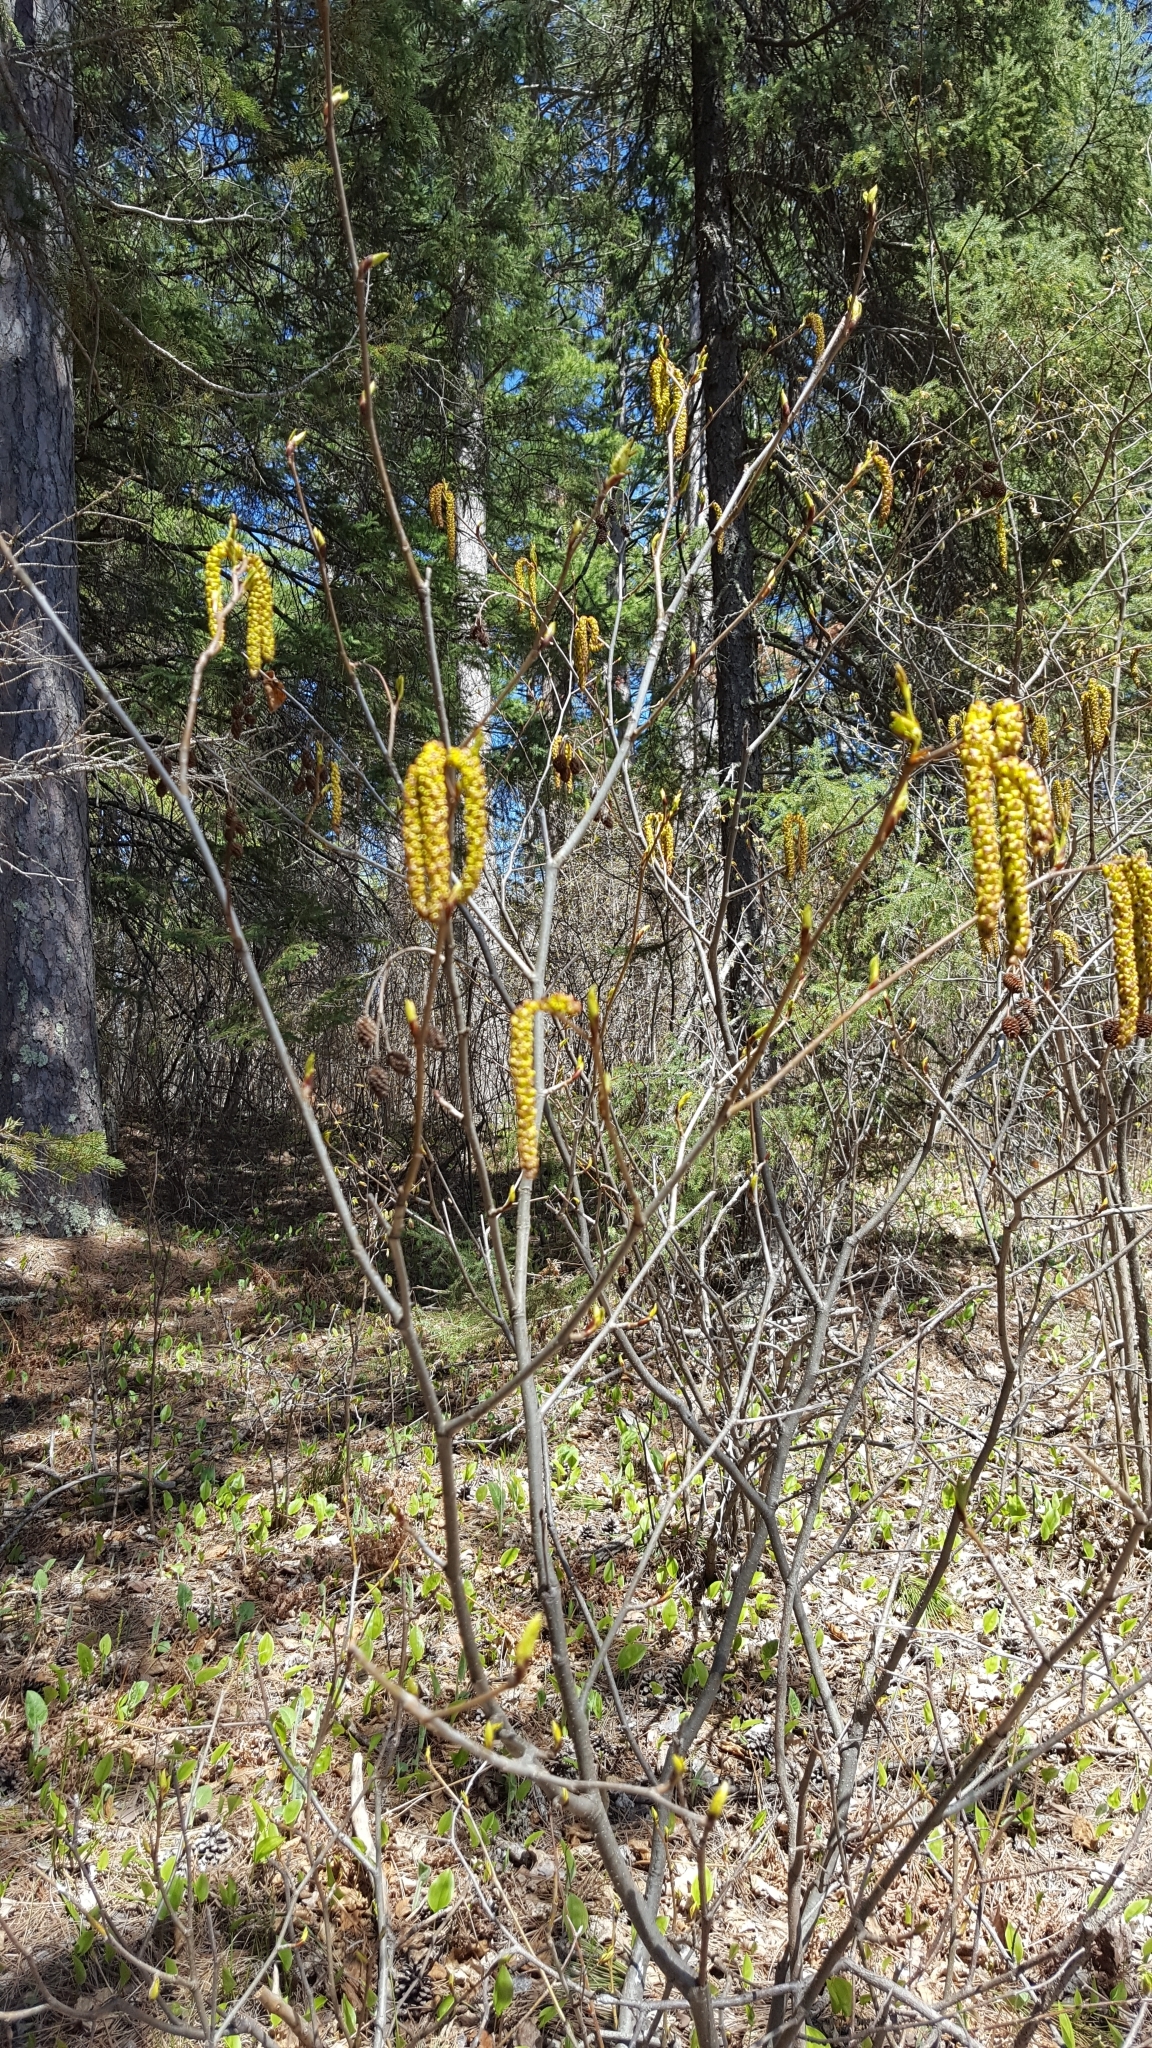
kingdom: Plantae
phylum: Tracheophyta
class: Magnoliopsida
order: Fagales
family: Betulaceae
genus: Alnus
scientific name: Alnus alnobetula
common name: Green alder
